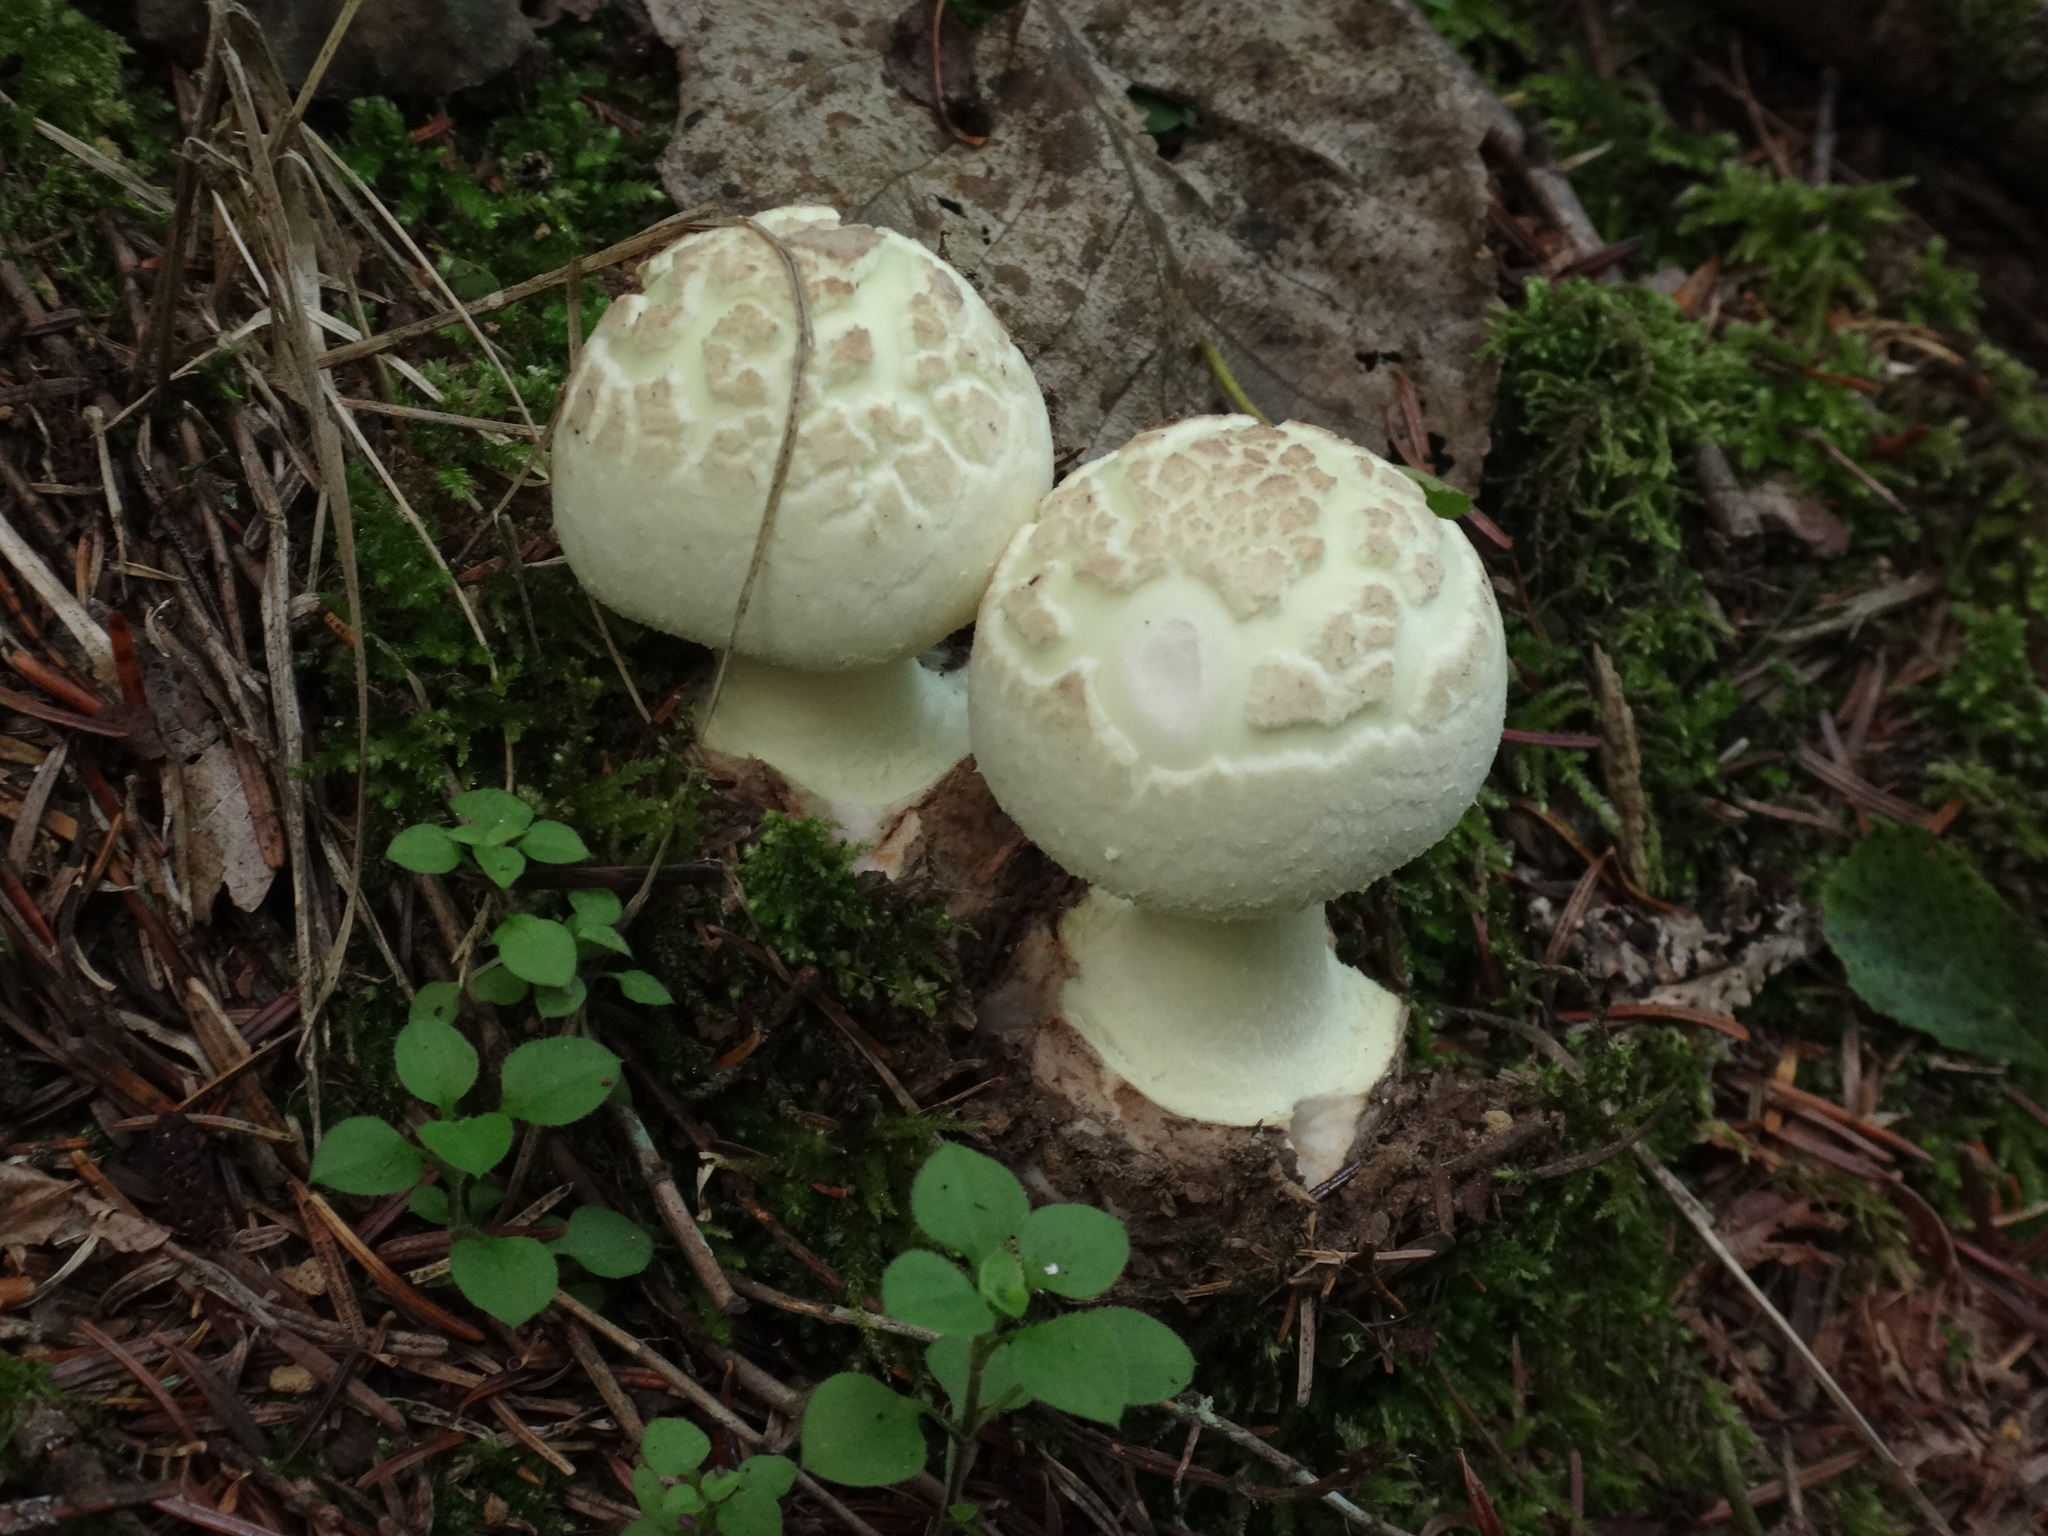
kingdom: Fungi
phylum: Basidiomycota
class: Agaricomycetes
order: Agaricales
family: Amanitaceae
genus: Amanita
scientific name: Amanita citrina
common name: False death-cap
